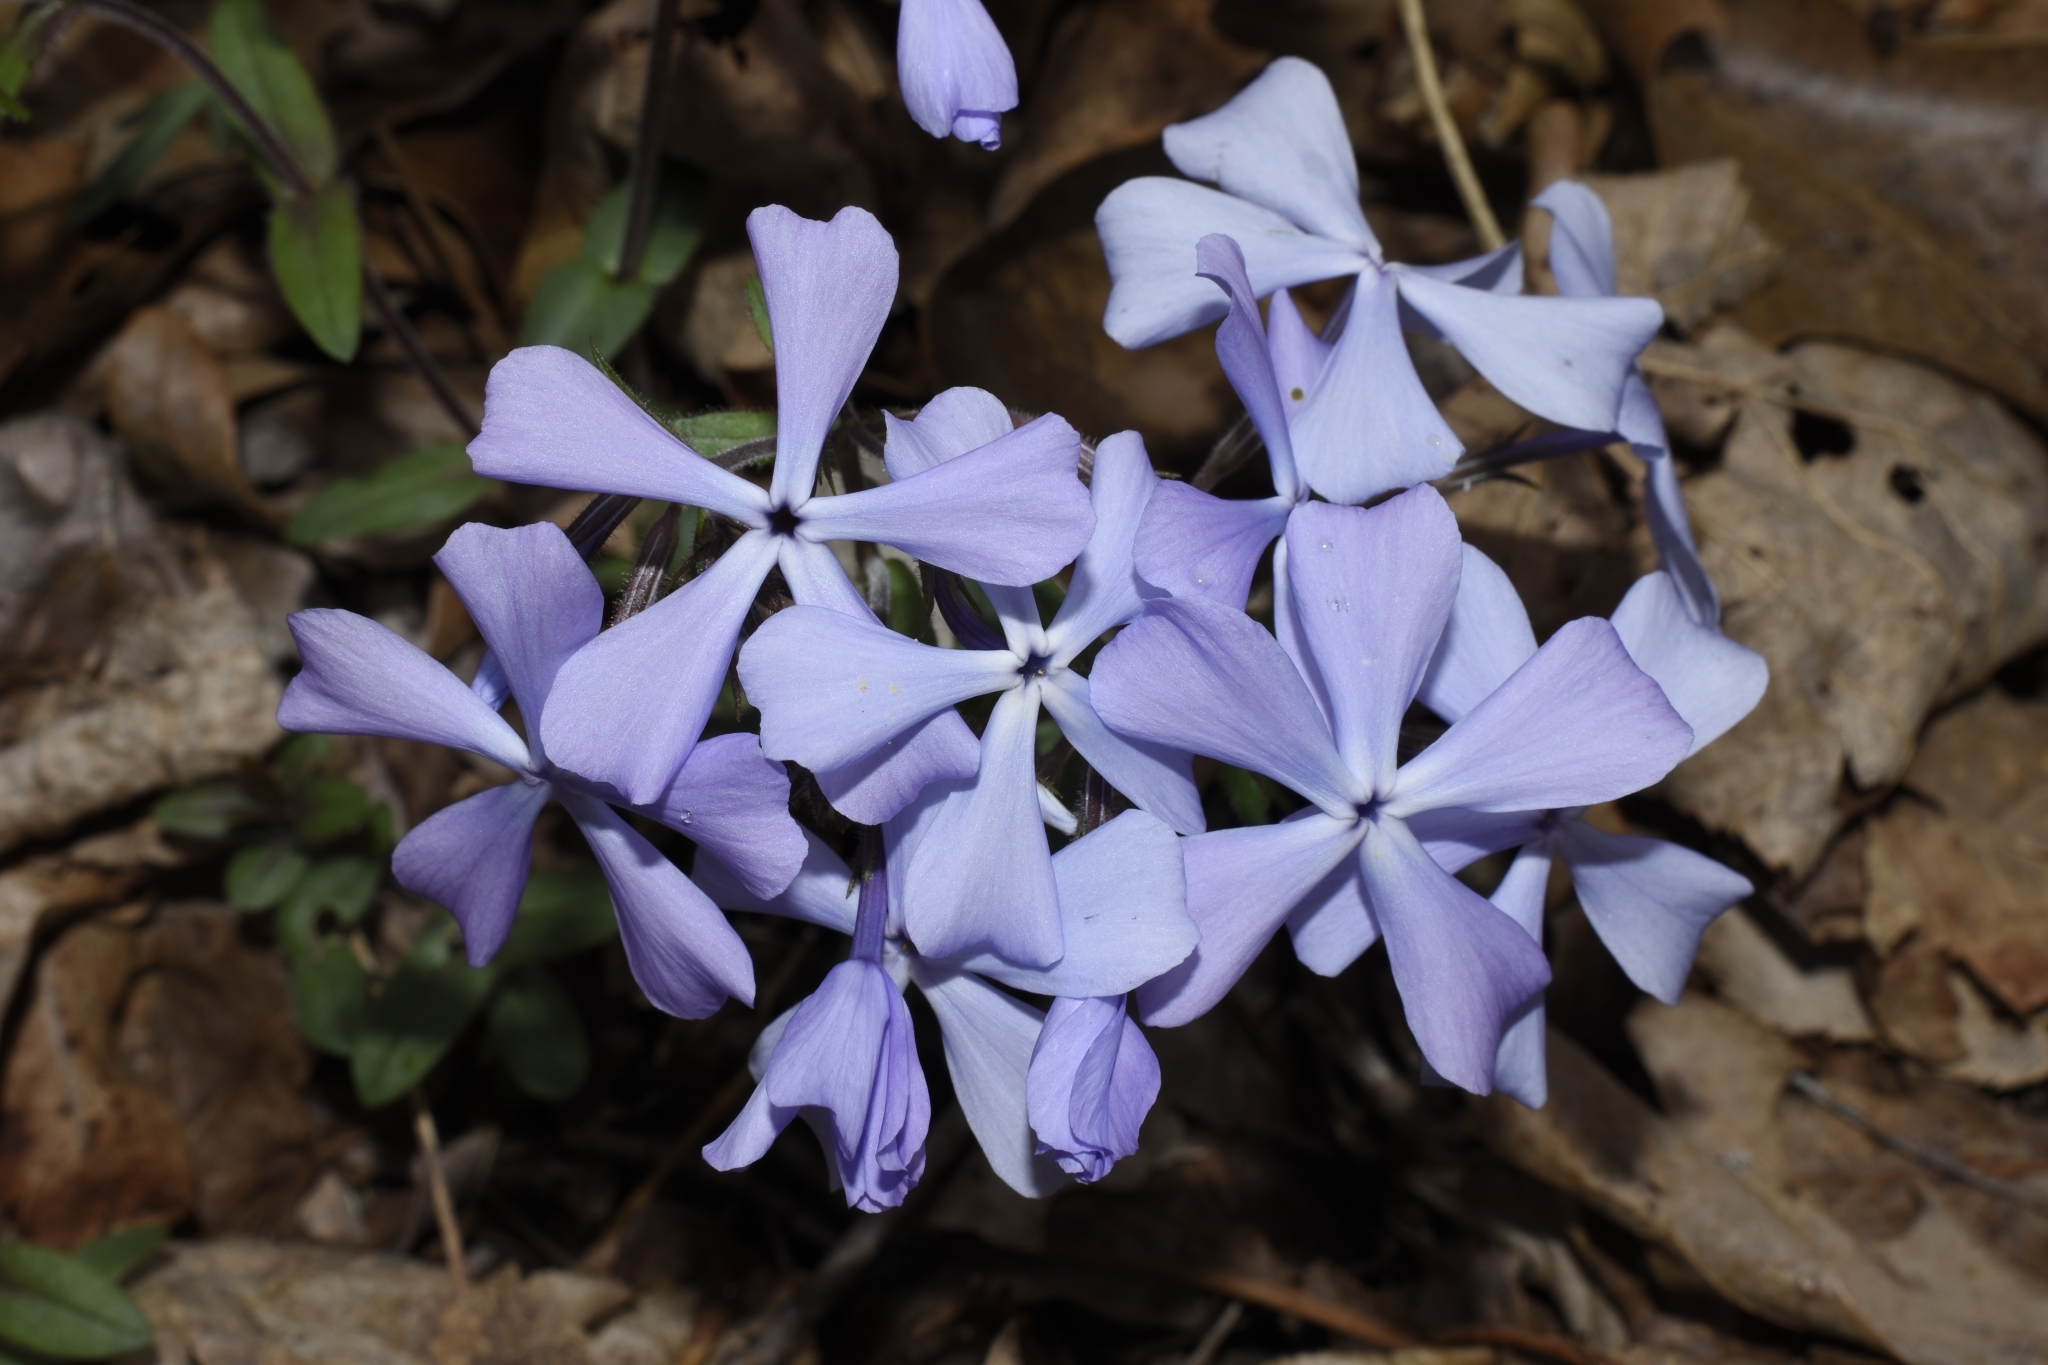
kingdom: Plantae
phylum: Tracheophyta
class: Magnoliopsida
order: Ericales
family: Polemoniaceae
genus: Phlox
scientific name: Phlox divaricata
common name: Blue phlox
